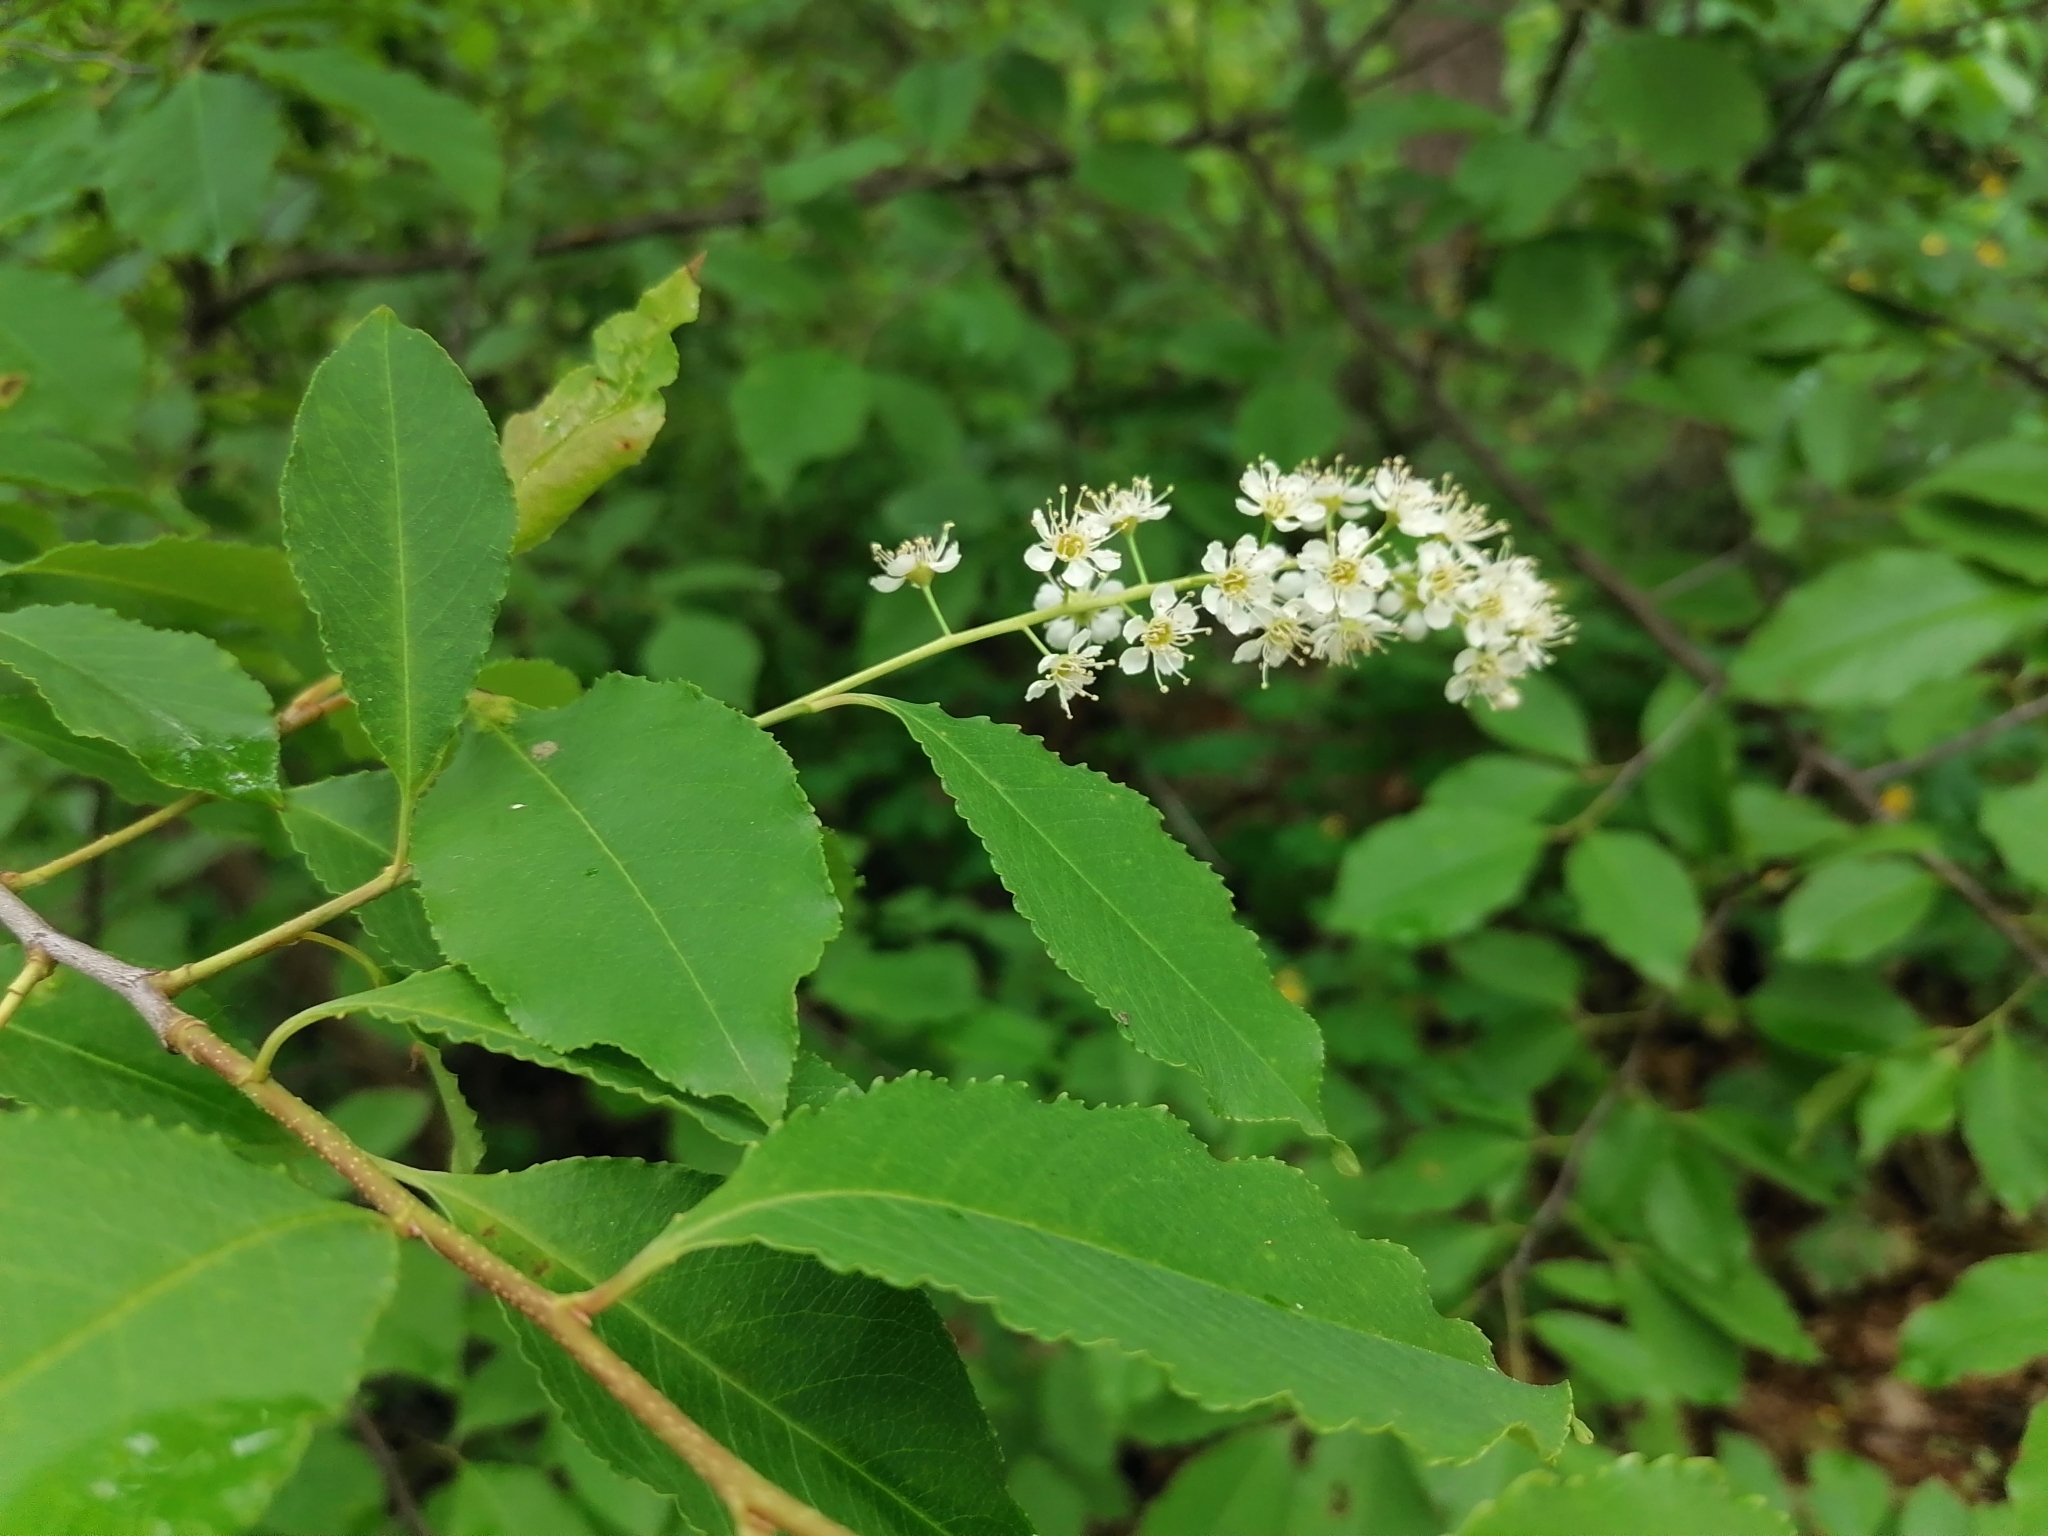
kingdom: Plantae
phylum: Tracheophyta
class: Magnoliopsida
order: Rosales
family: Rosaceae
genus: Prunus
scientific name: Prunus serotina
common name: Black cherry
